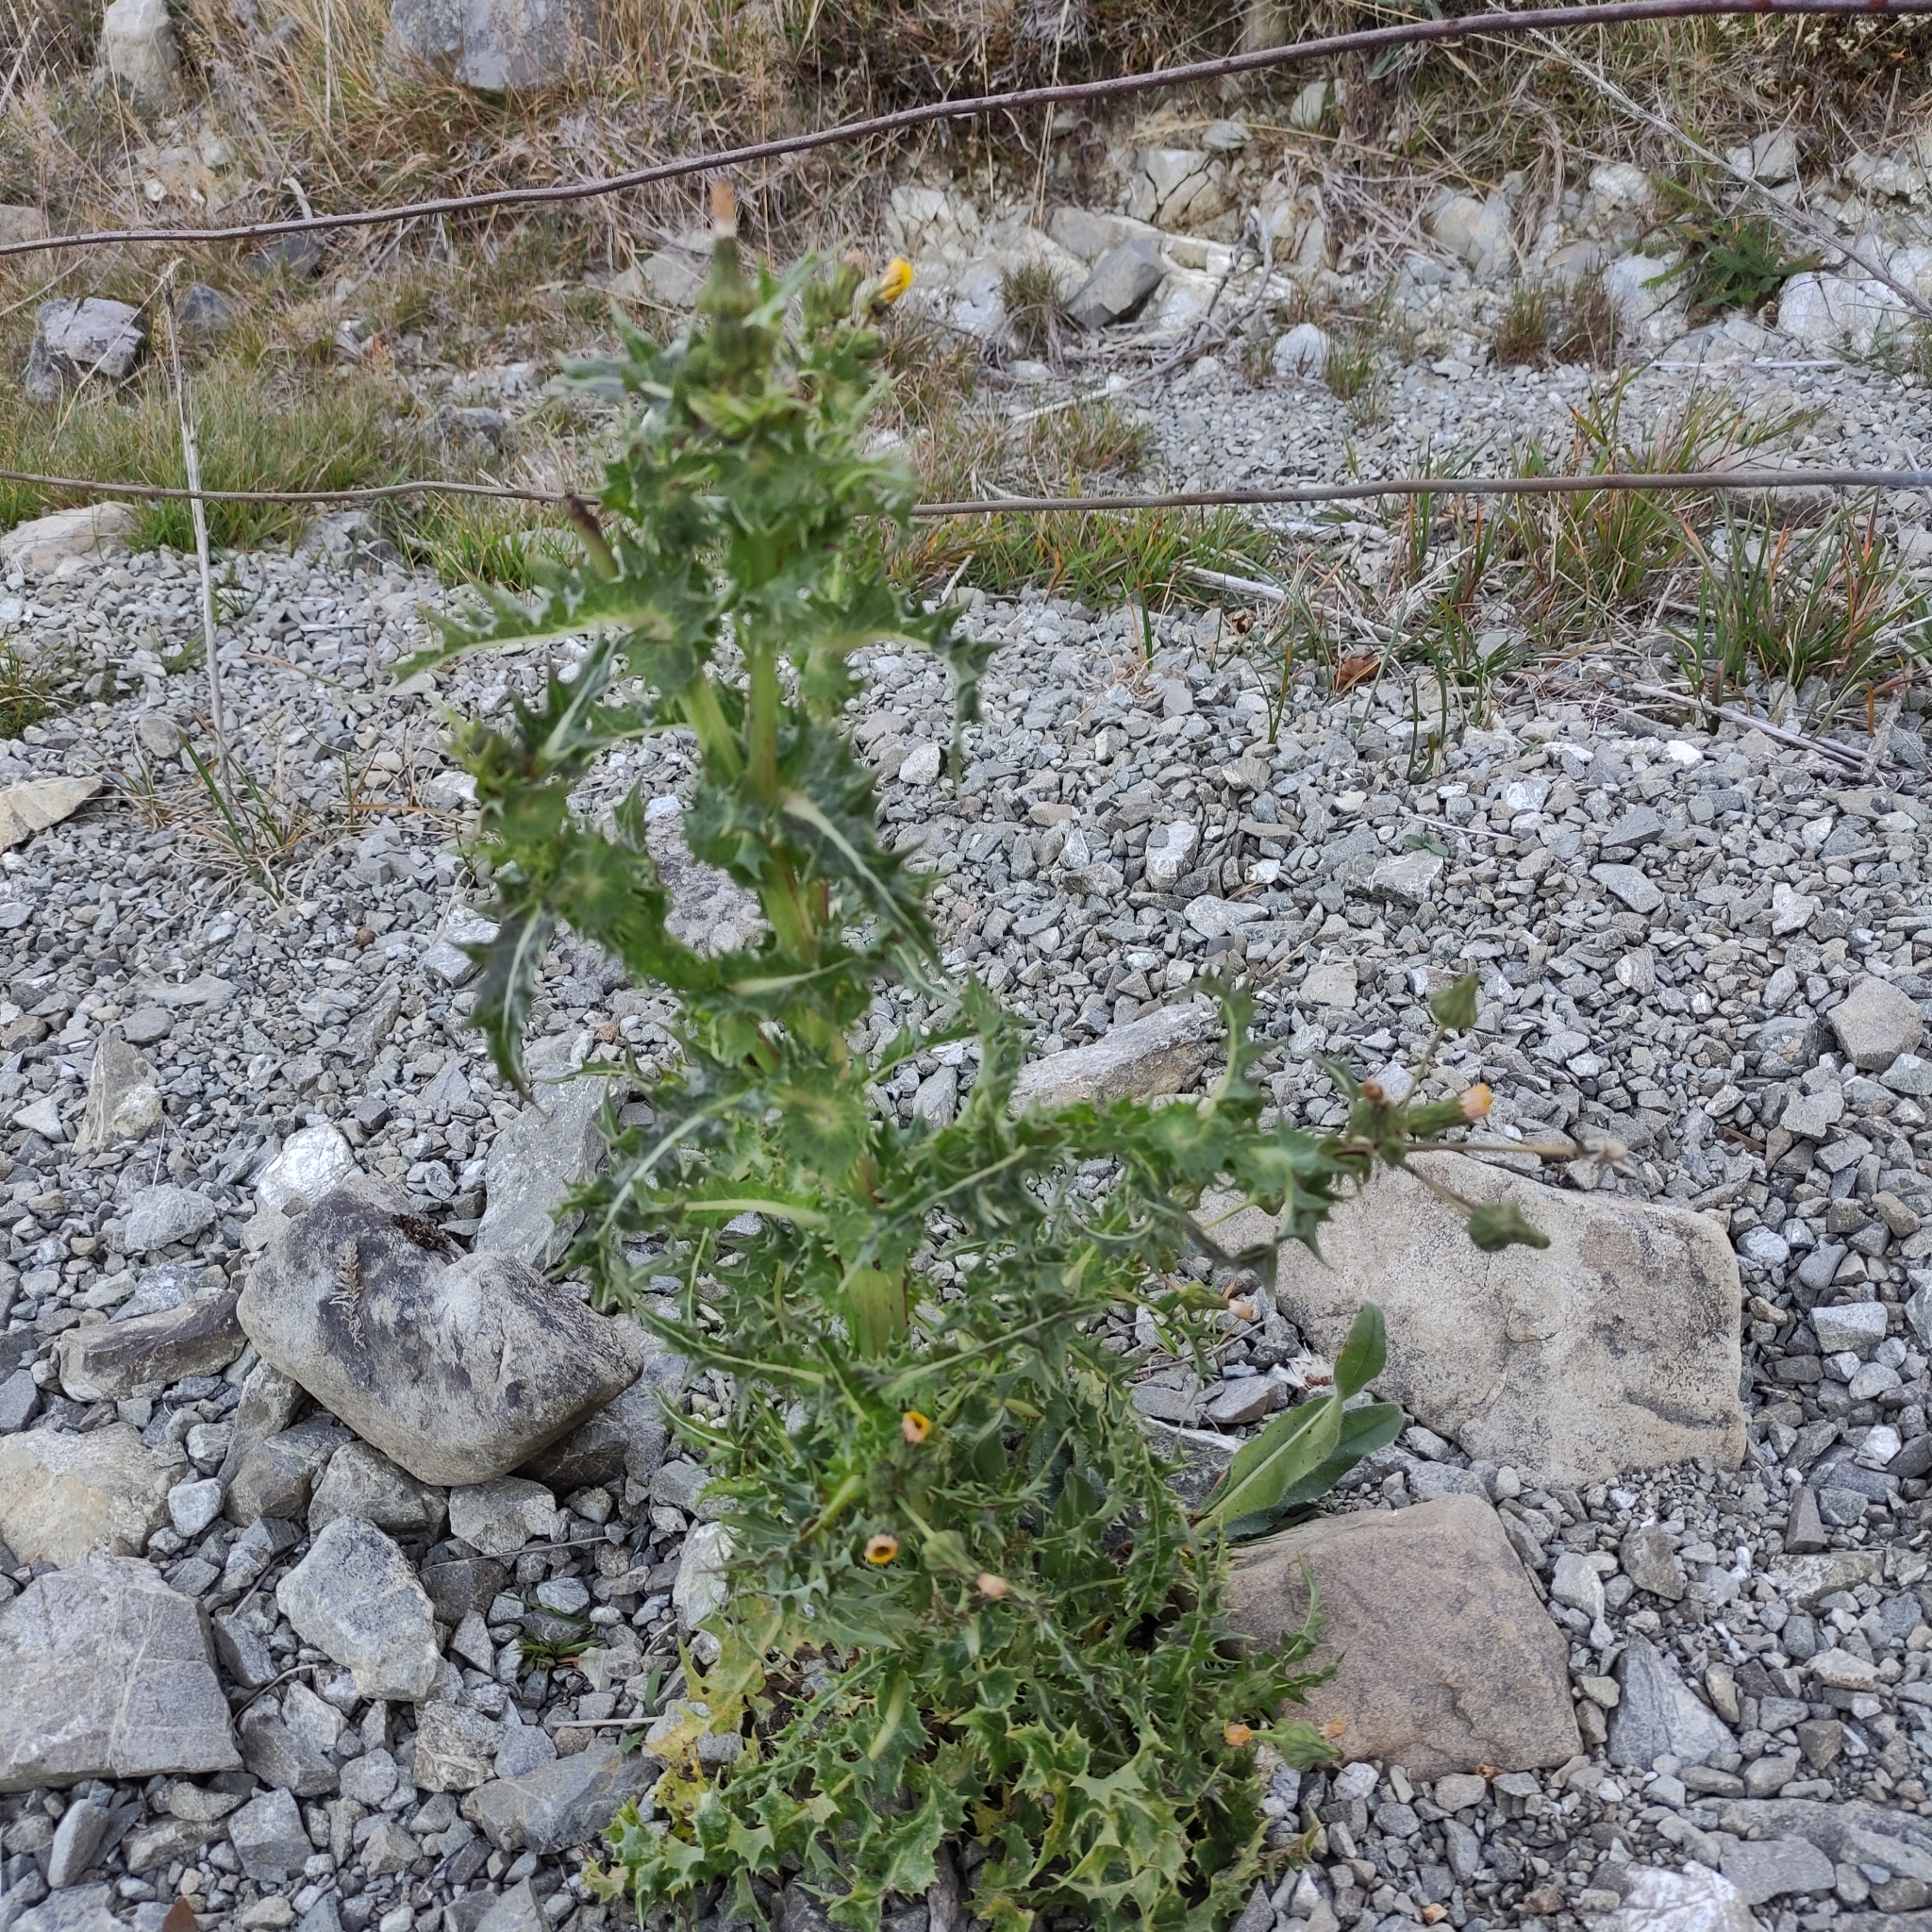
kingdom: Plantae
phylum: Tracheophyta
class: Magnoliopsida
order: Asterales
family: Asteraceae
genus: Sonchus
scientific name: Sonchus asper
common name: Prickly sow-thistle
